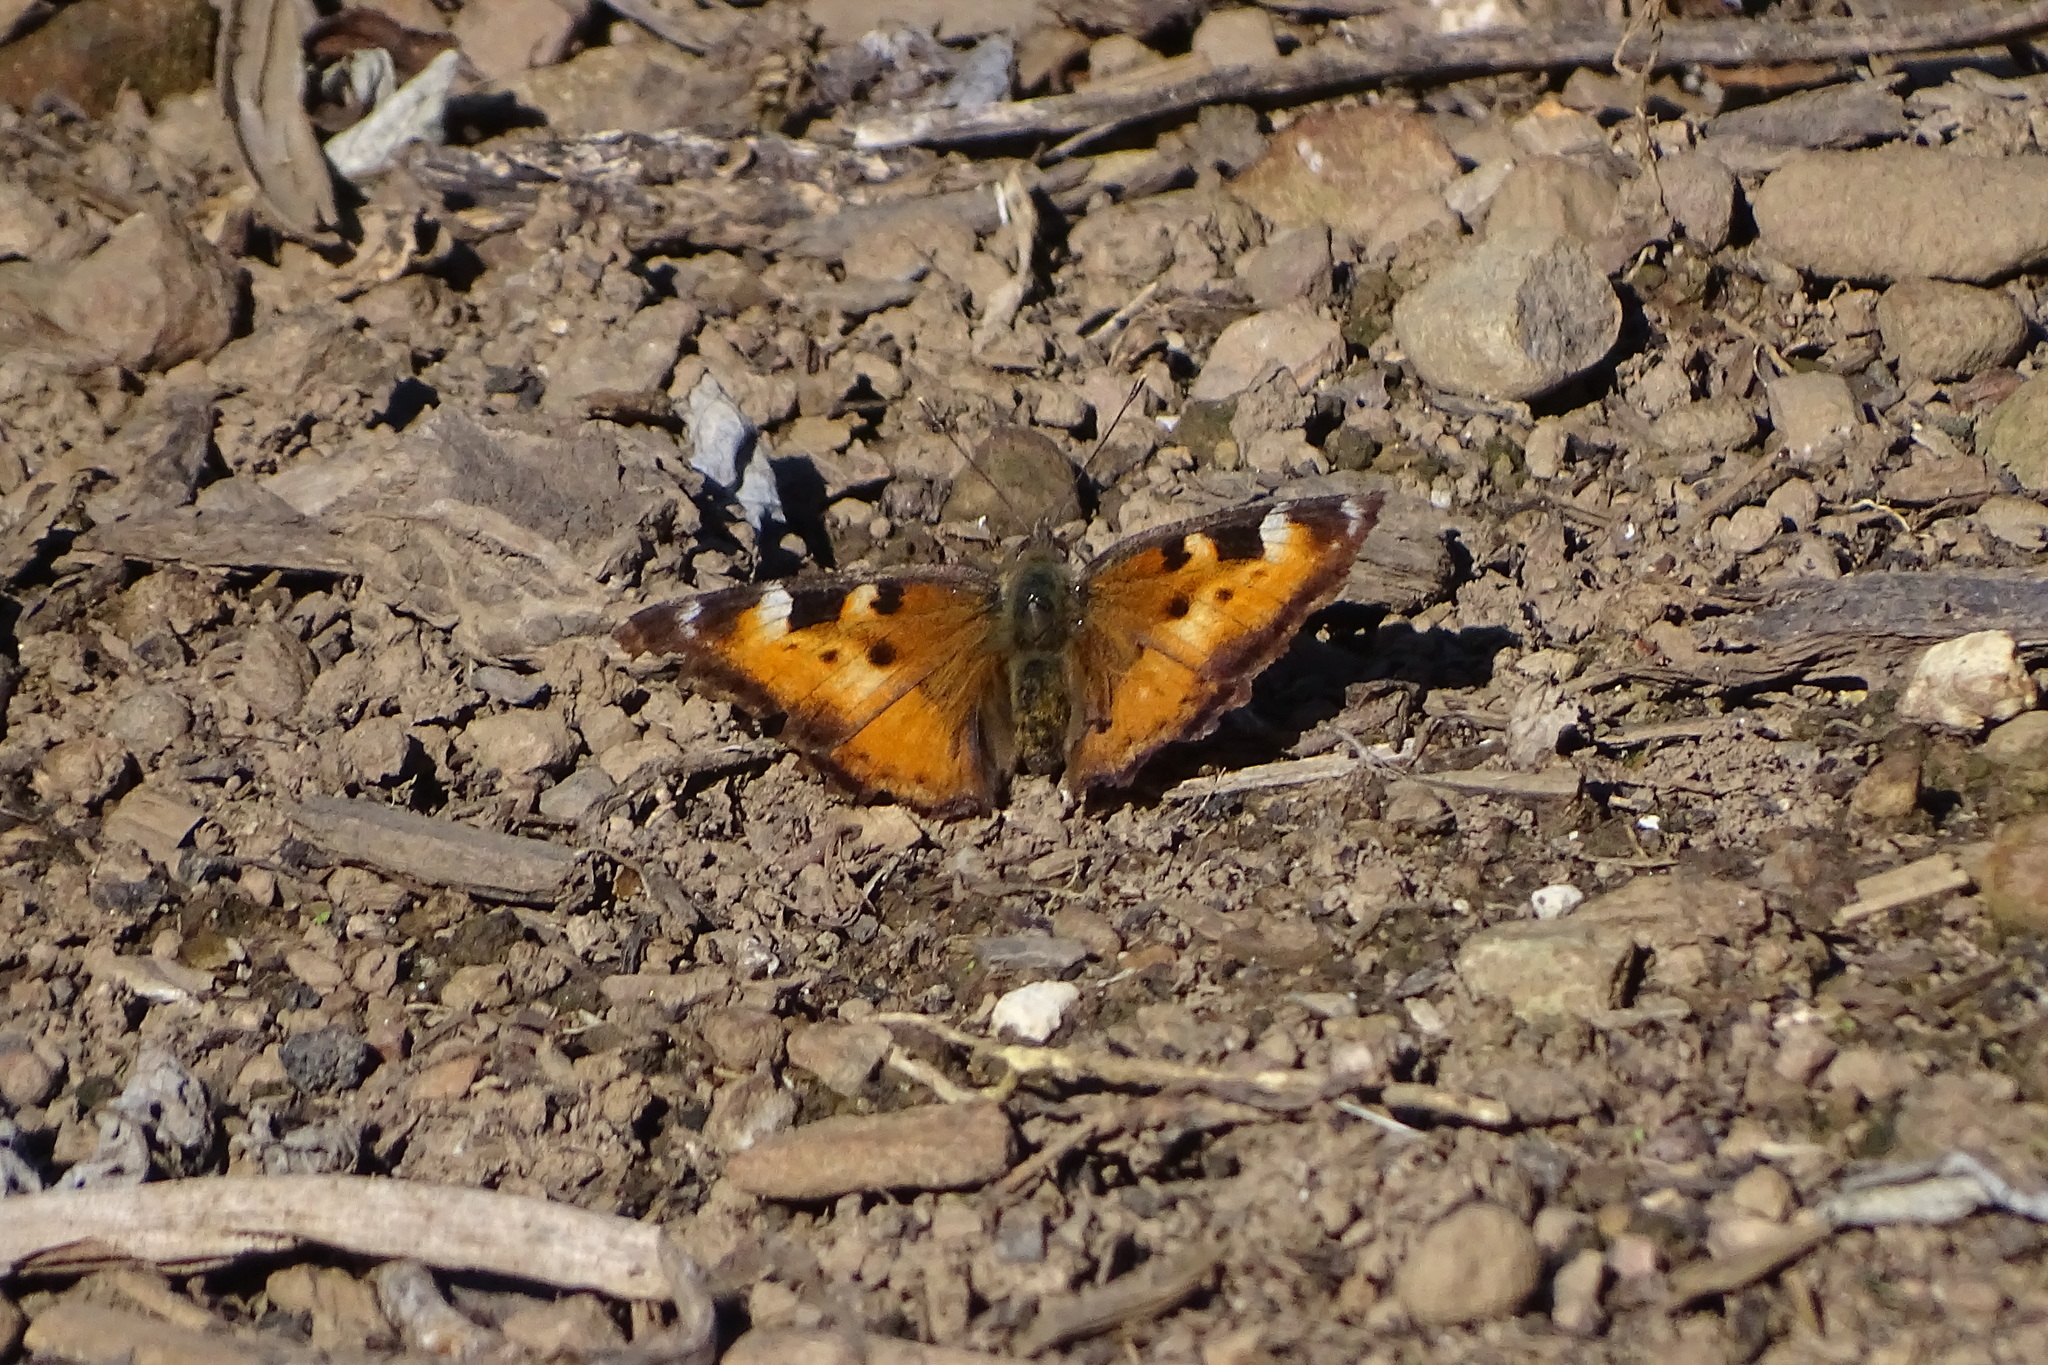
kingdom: Animalia
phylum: Arthropoda
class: Insecta
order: Lepidoptera
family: Nymphalidae
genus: Nymphalis
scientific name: Nymphalis californica
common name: California tortoiseshell
